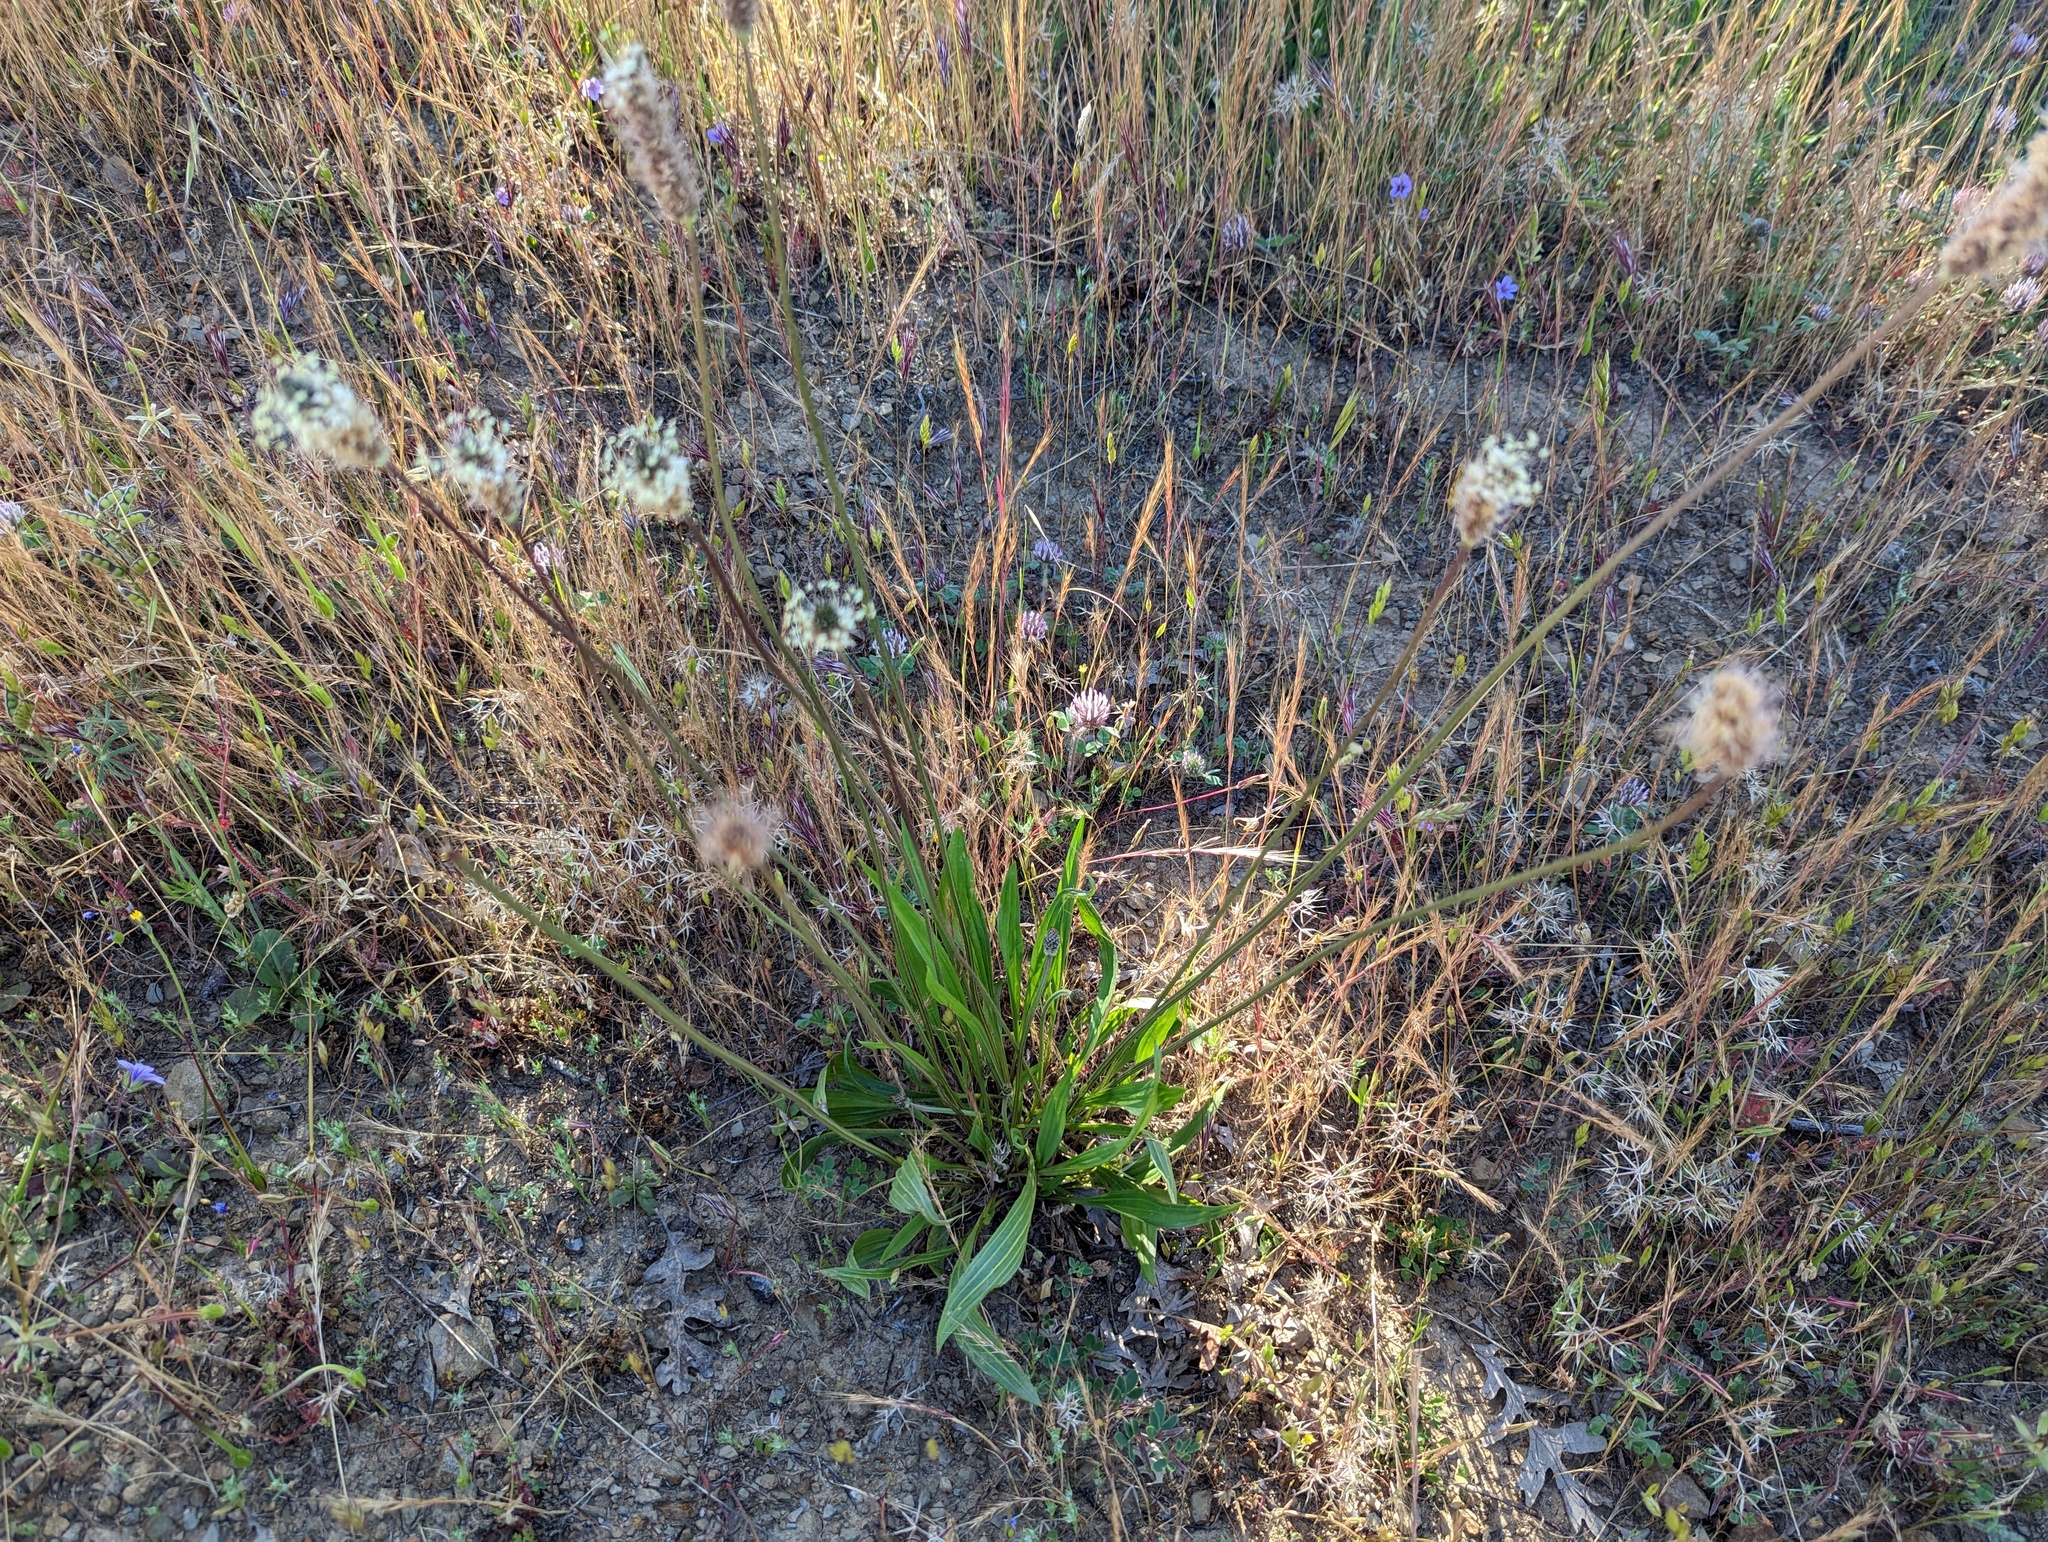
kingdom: Plantae
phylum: Tracheophyta
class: Magnoliopsida
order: Lamiales
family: Plantaginaceae
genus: Plantago
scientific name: Plantago lanceolata
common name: Ribwort plantain
